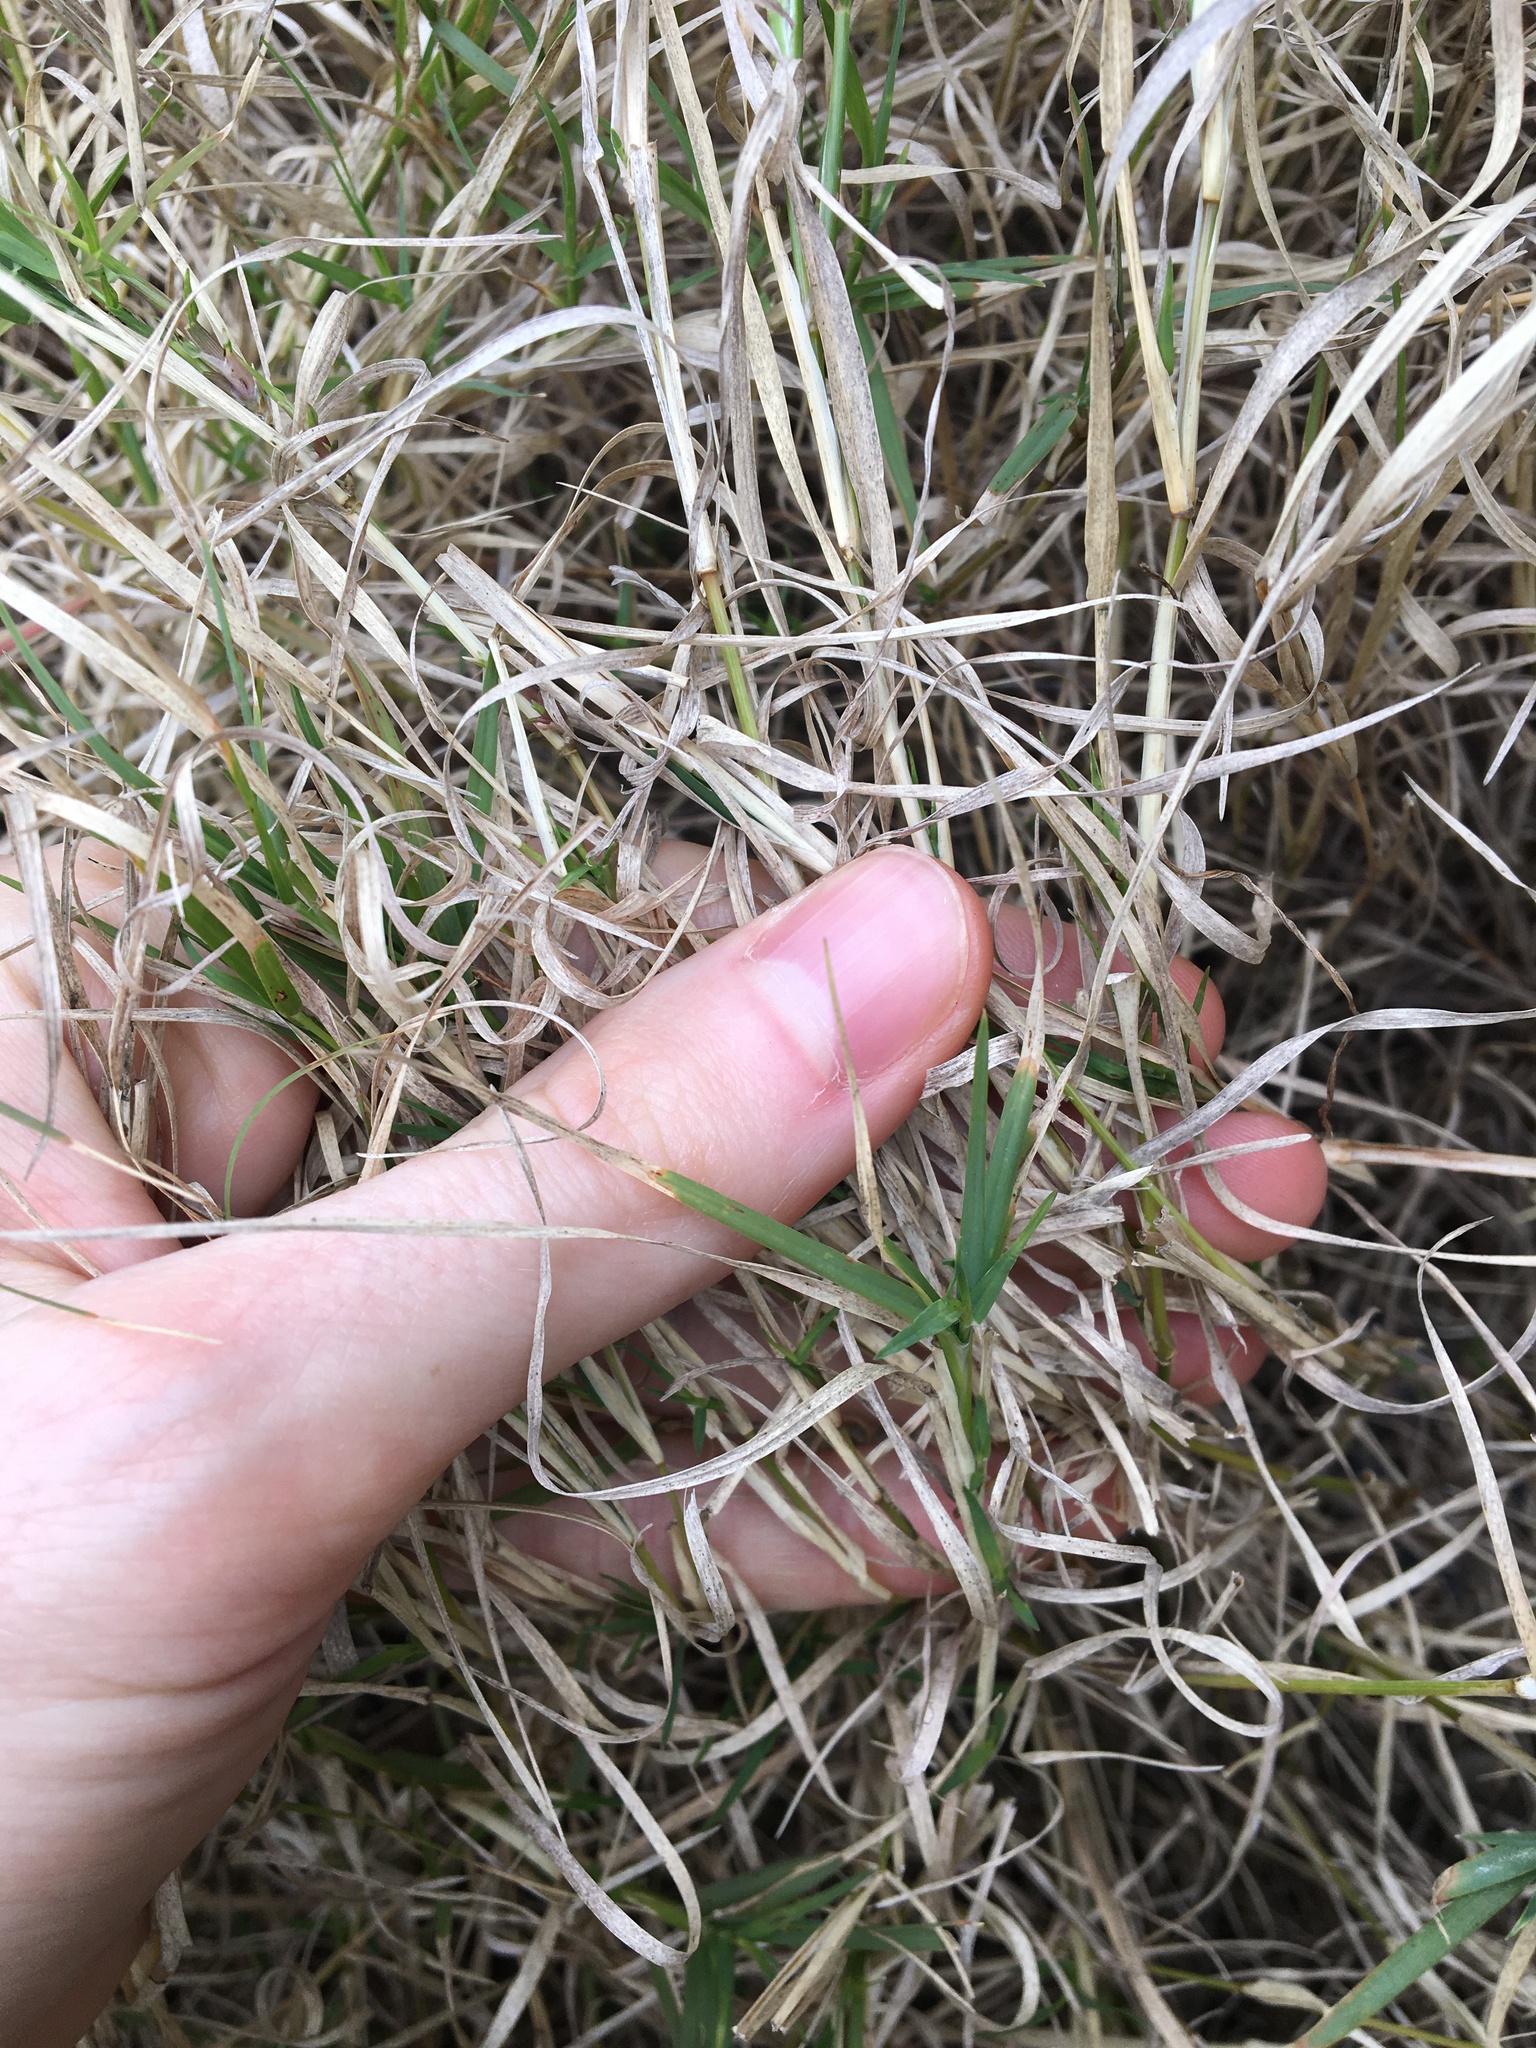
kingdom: Plantae
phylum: Tracheophyta
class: Liliopsida
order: Poales
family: Poaceae
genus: Cynodon
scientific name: Cynodon dactylon
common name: Bermuda grass
